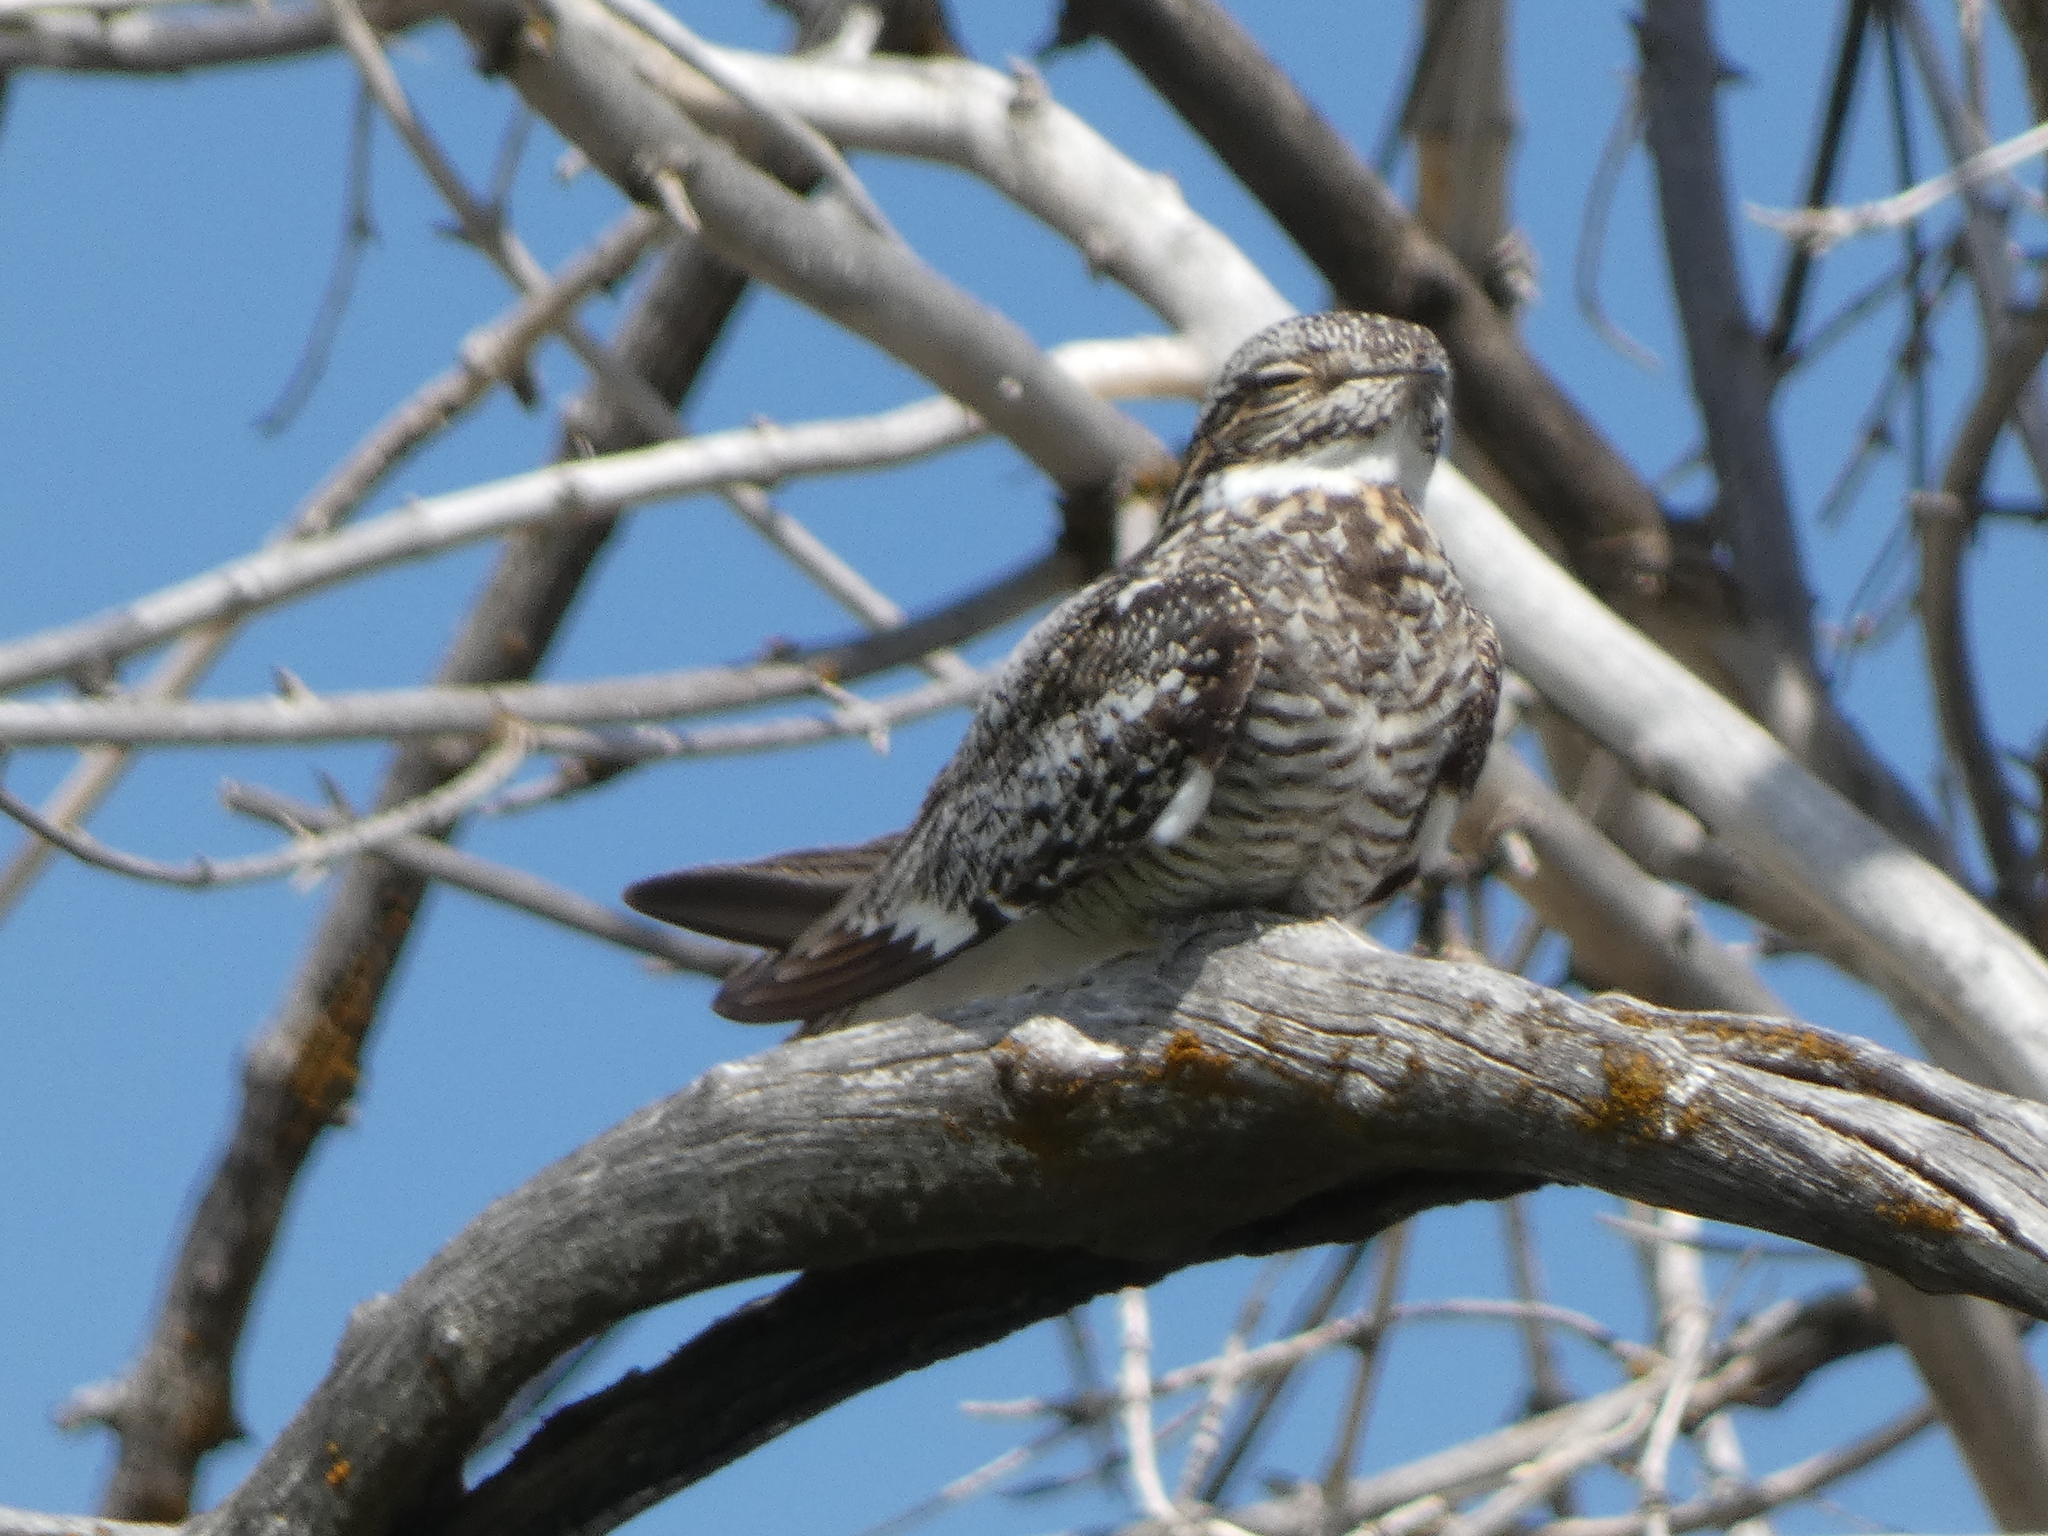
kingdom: Animalia
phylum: Chordata
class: Aves
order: Caprimulgiformes
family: Caprimulgidae
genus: Chordeiles
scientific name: Chordeiles minor
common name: Common nighthawk
